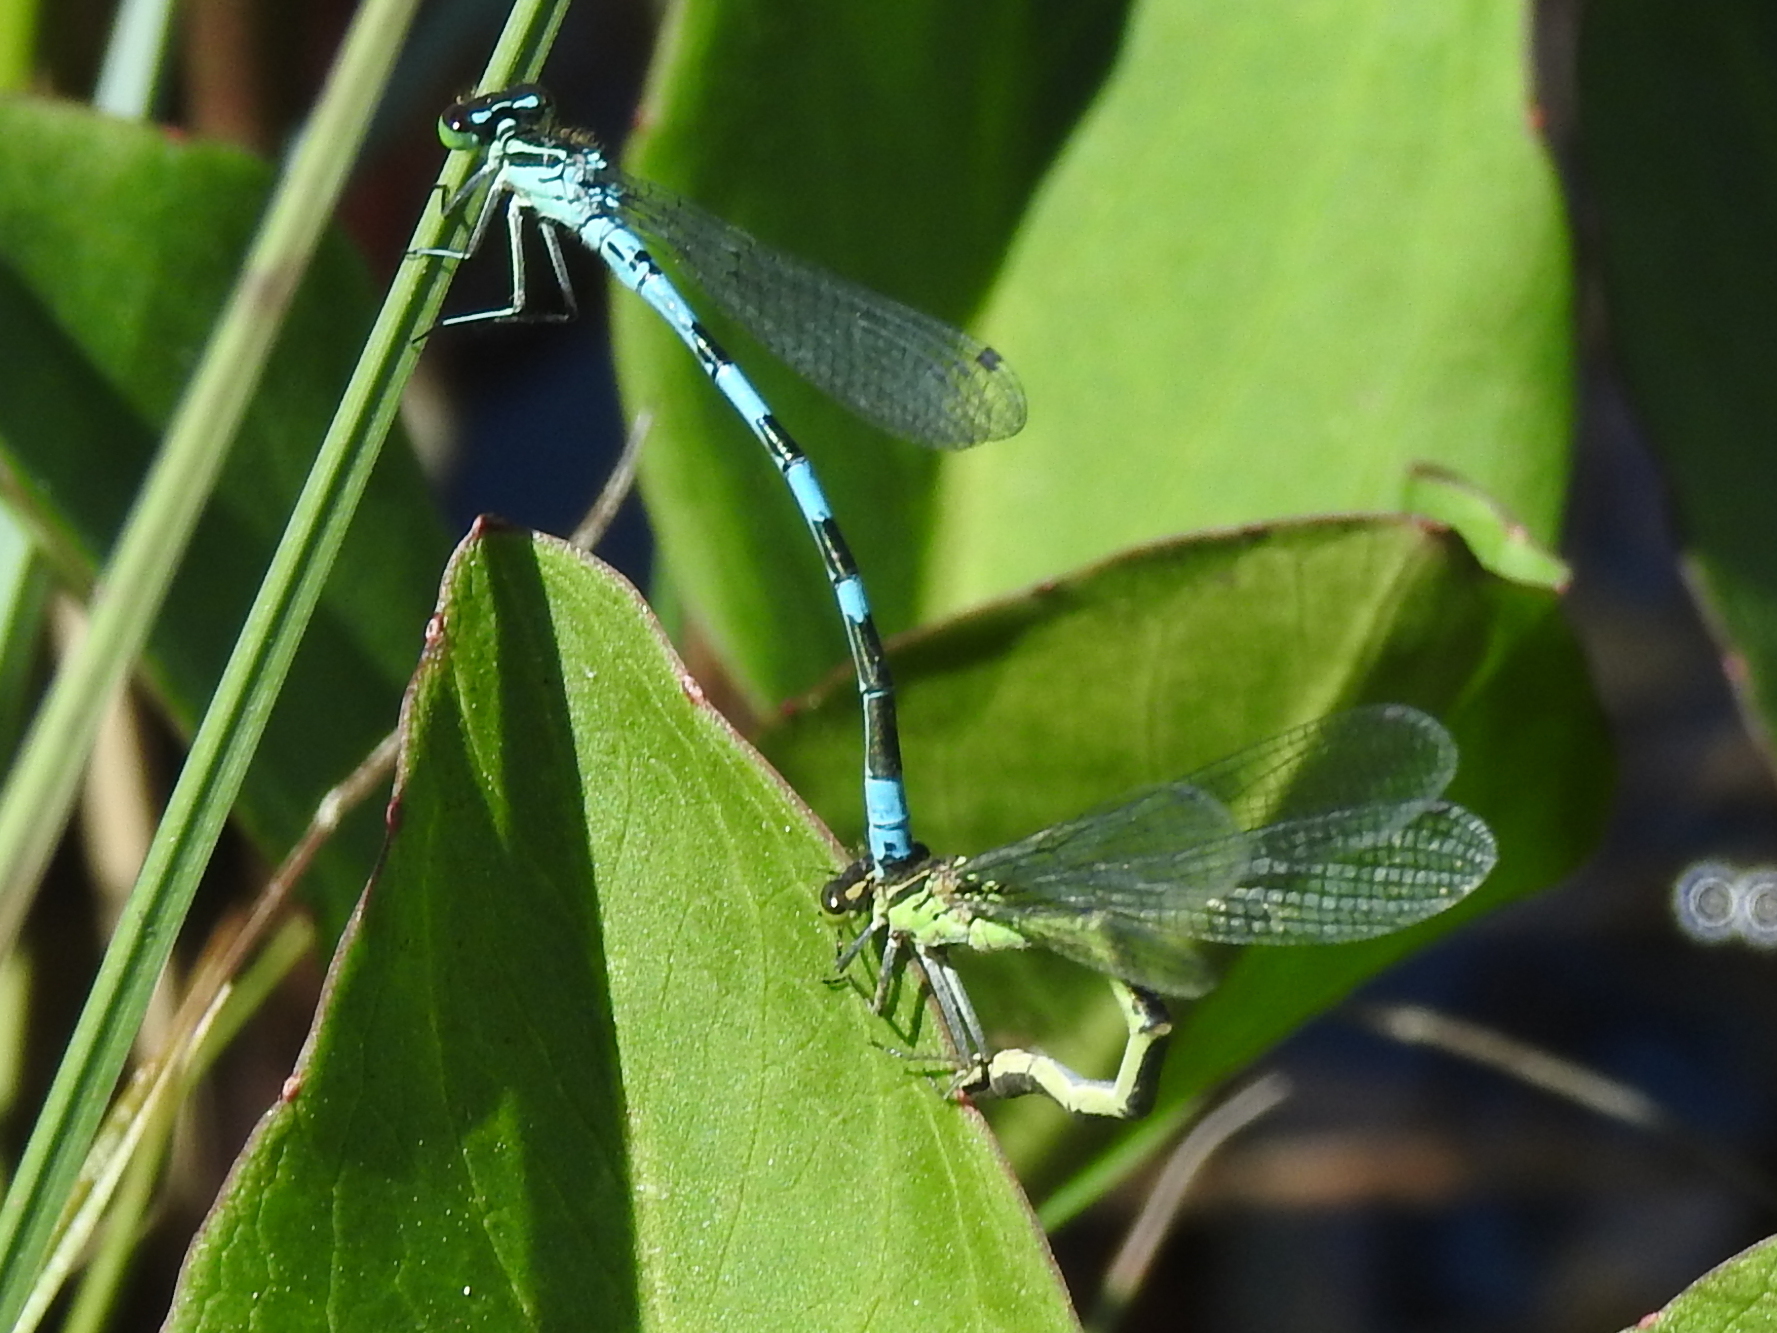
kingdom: Animalia
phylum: Arthropoda
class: Insecta
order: Odonata
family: Coenagrionidae
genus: Coenagrion
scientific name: Coenagrion hastulatum
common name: Spearhead bluet
